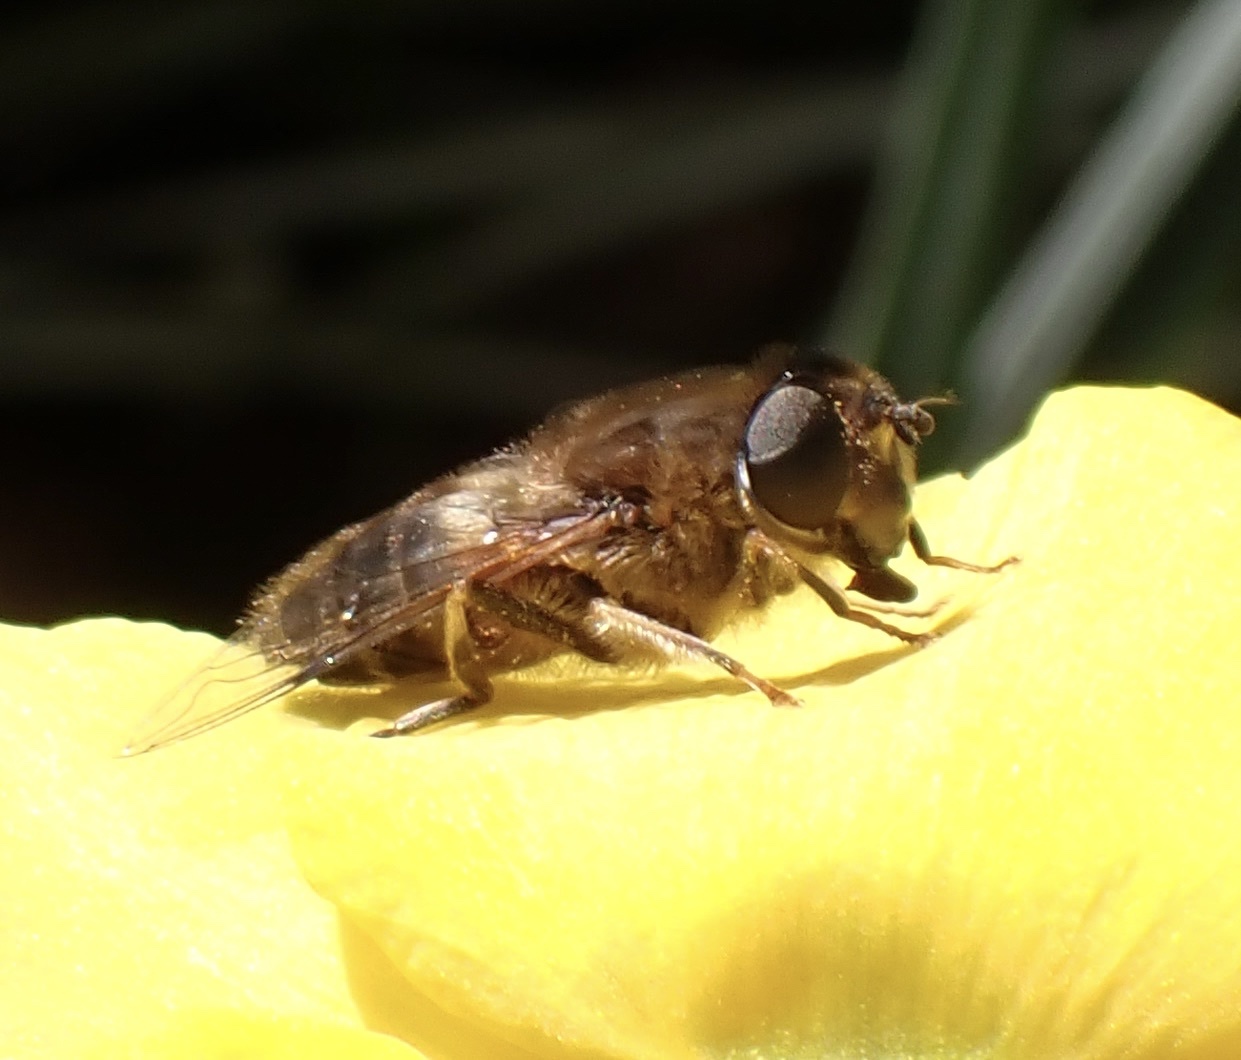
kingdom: Animalia
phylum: Arthropoda
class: Insecta
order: Diptera
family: Syrphidae
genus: Eristalis
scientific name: Eristalis pertinax
